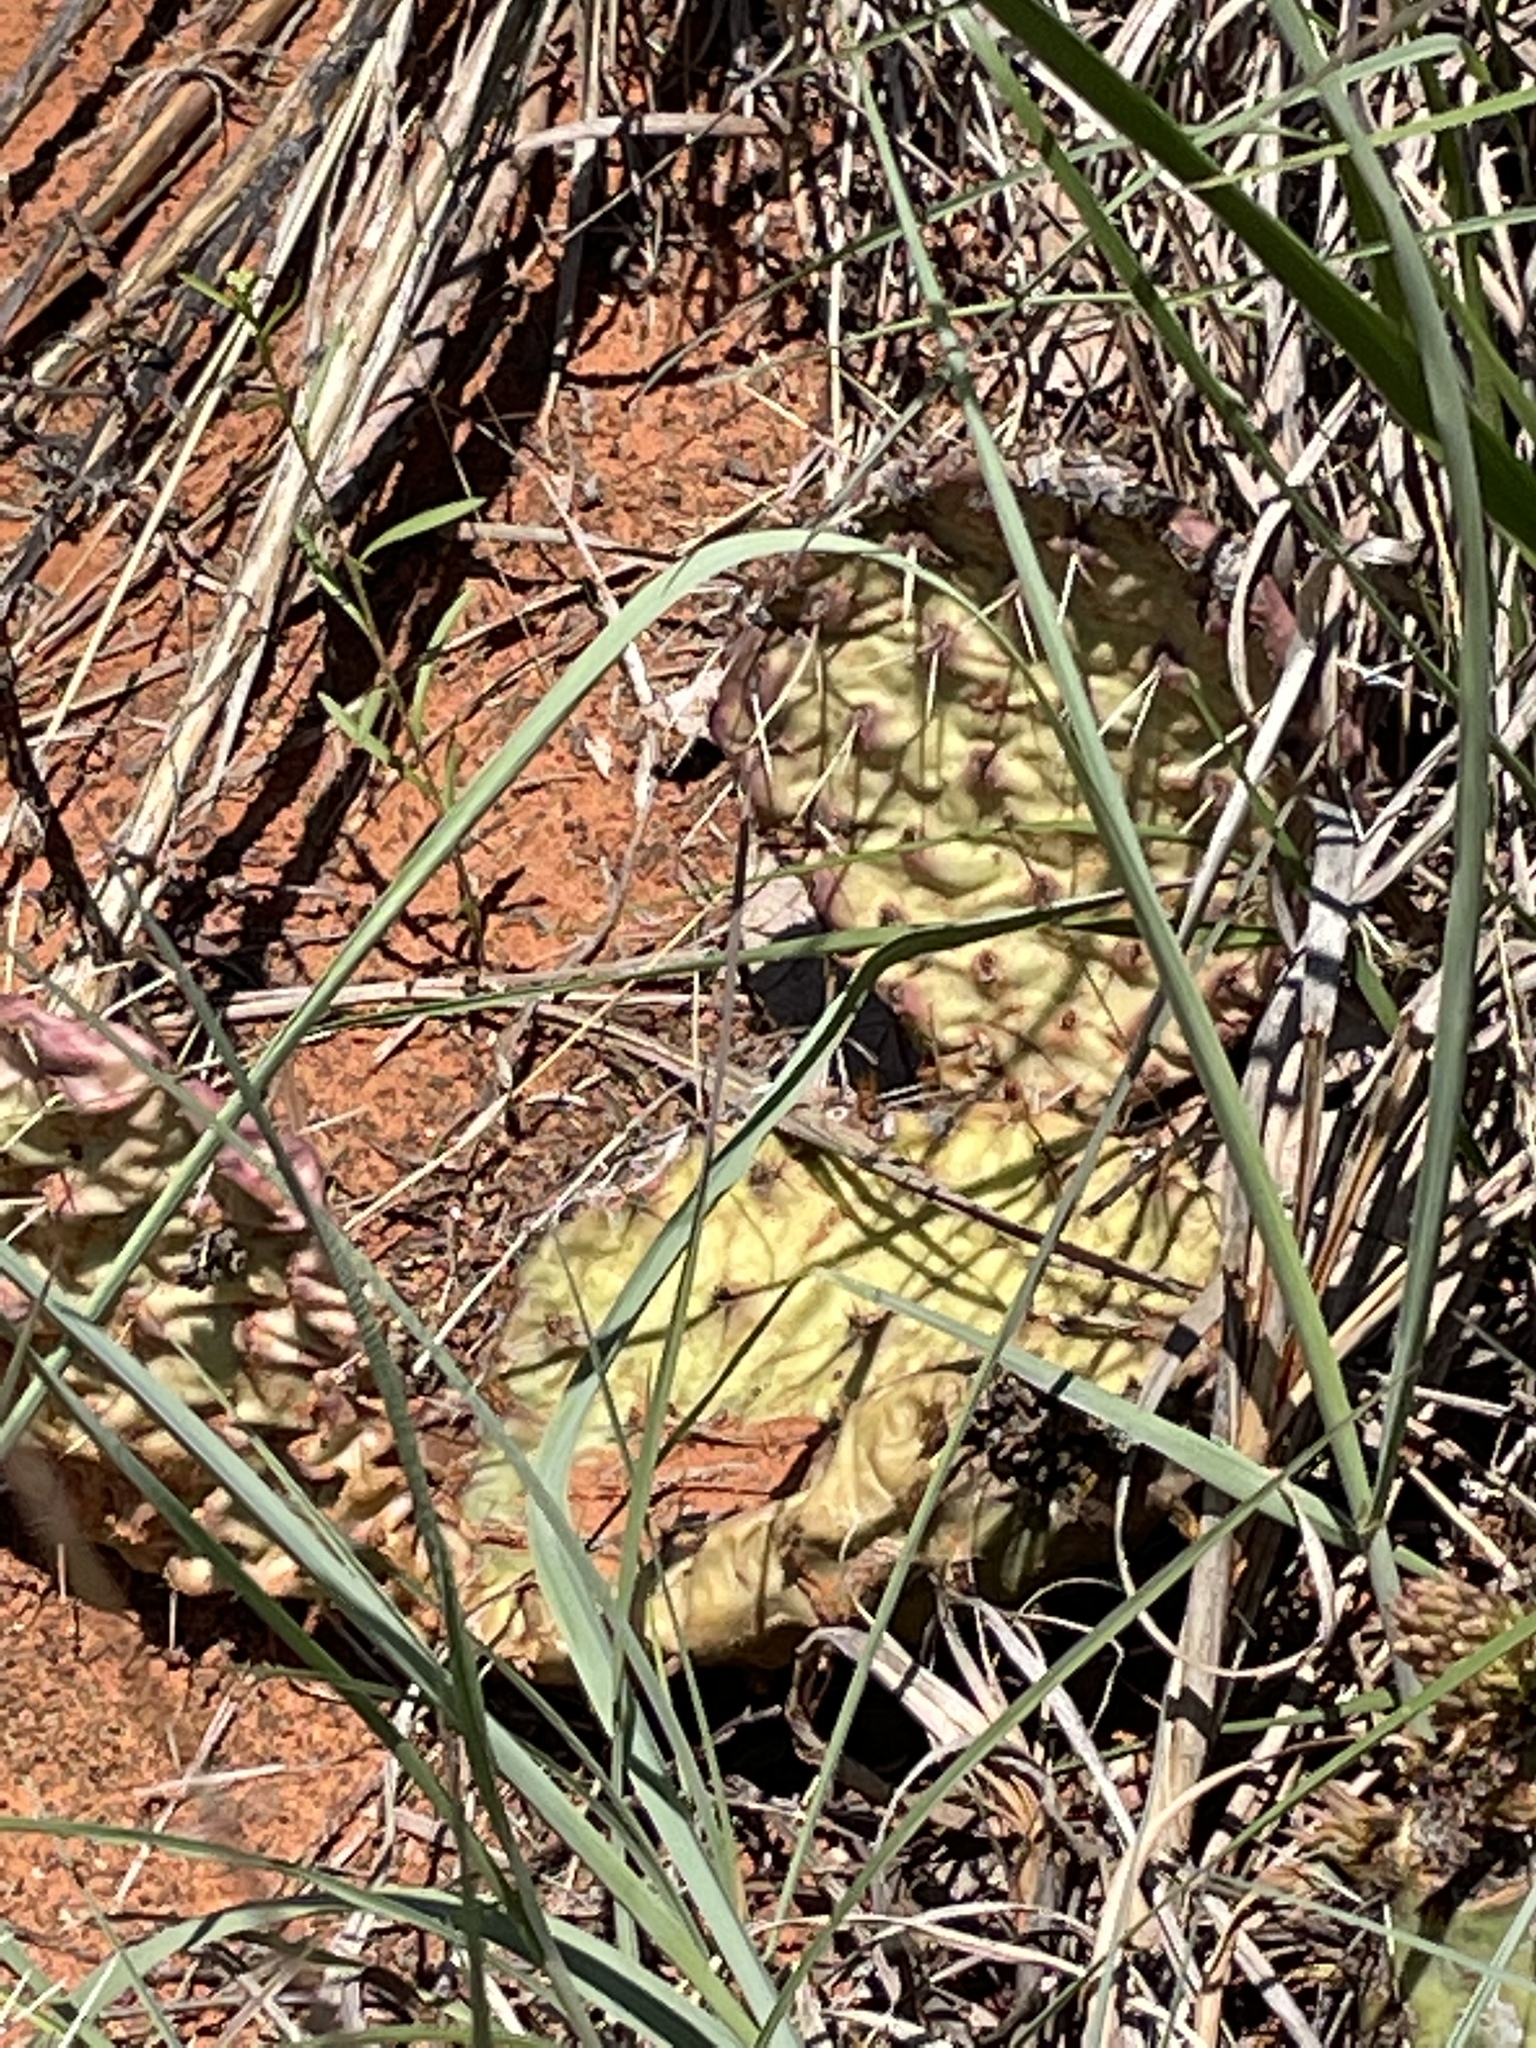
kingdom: Plantae
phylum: Tracheophyta
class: Magnoliopsida
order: Caryophyllales
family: Cactaceae
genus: Opuntia
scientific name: Opuntia macrorhiza
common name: Grassland pricklypear
